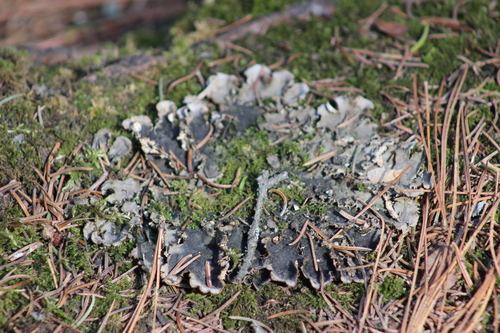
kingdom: Fungi
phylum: Ascomycota
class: Lecanoromycetes
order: Peltigerales
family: Peltigeraceae
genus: Peltigera
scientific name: Peltigera
